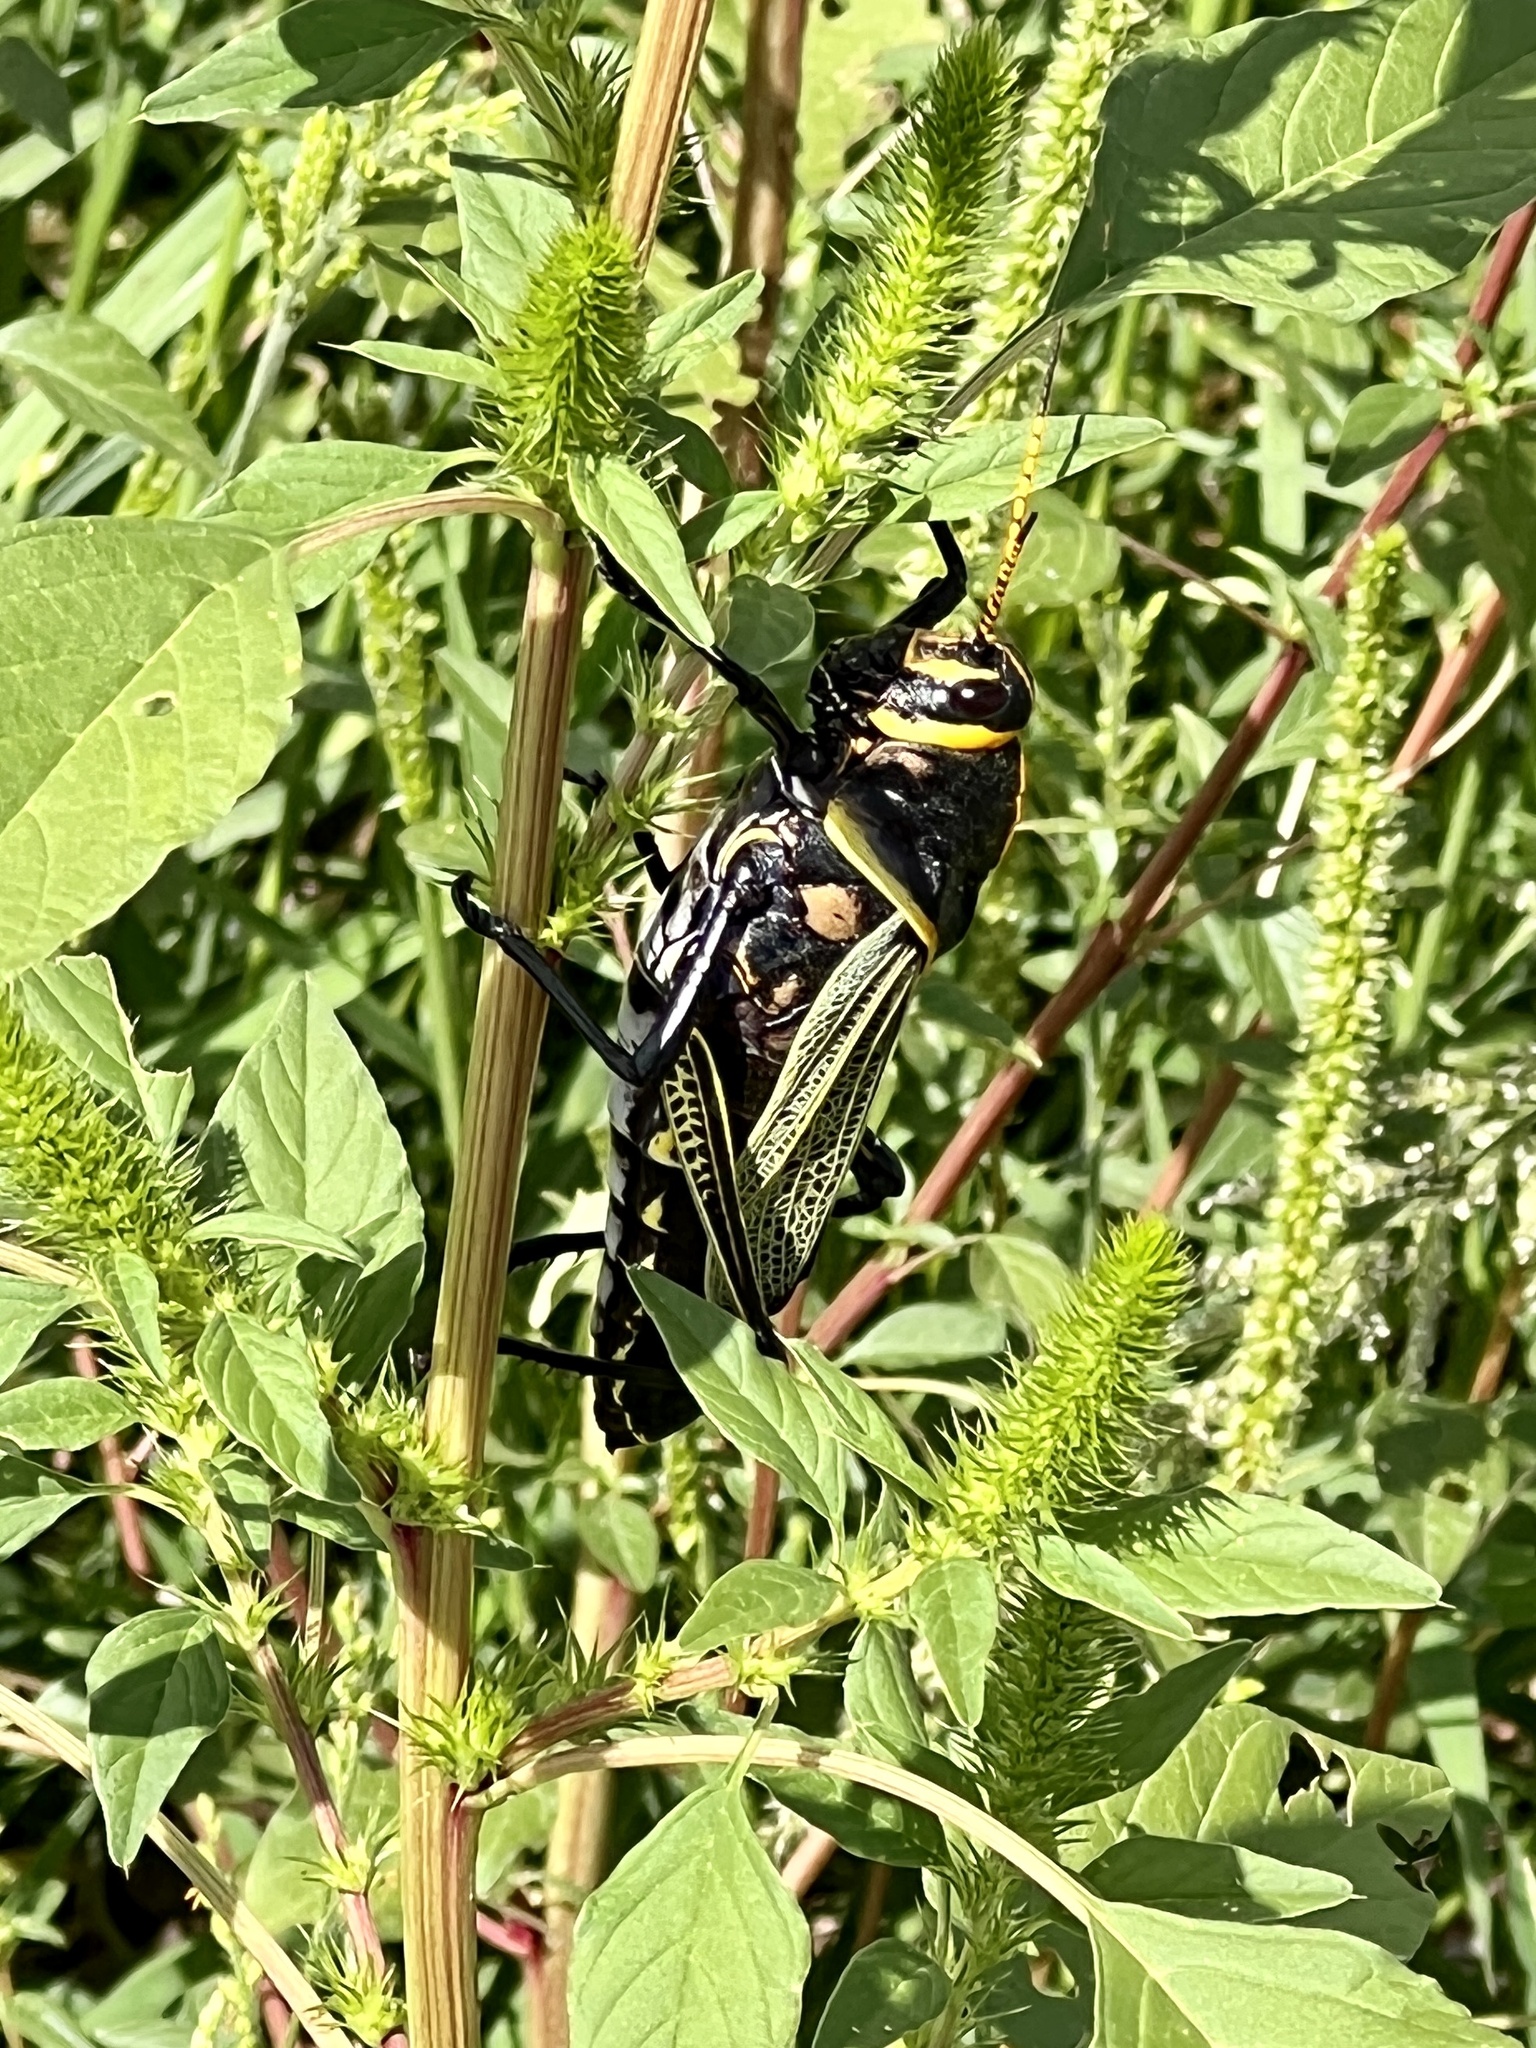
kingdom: Animalia
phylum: Arthropoda
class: Insecta
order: Orthoptera
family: Romaleidae
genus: Romalea
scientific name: Romalea
